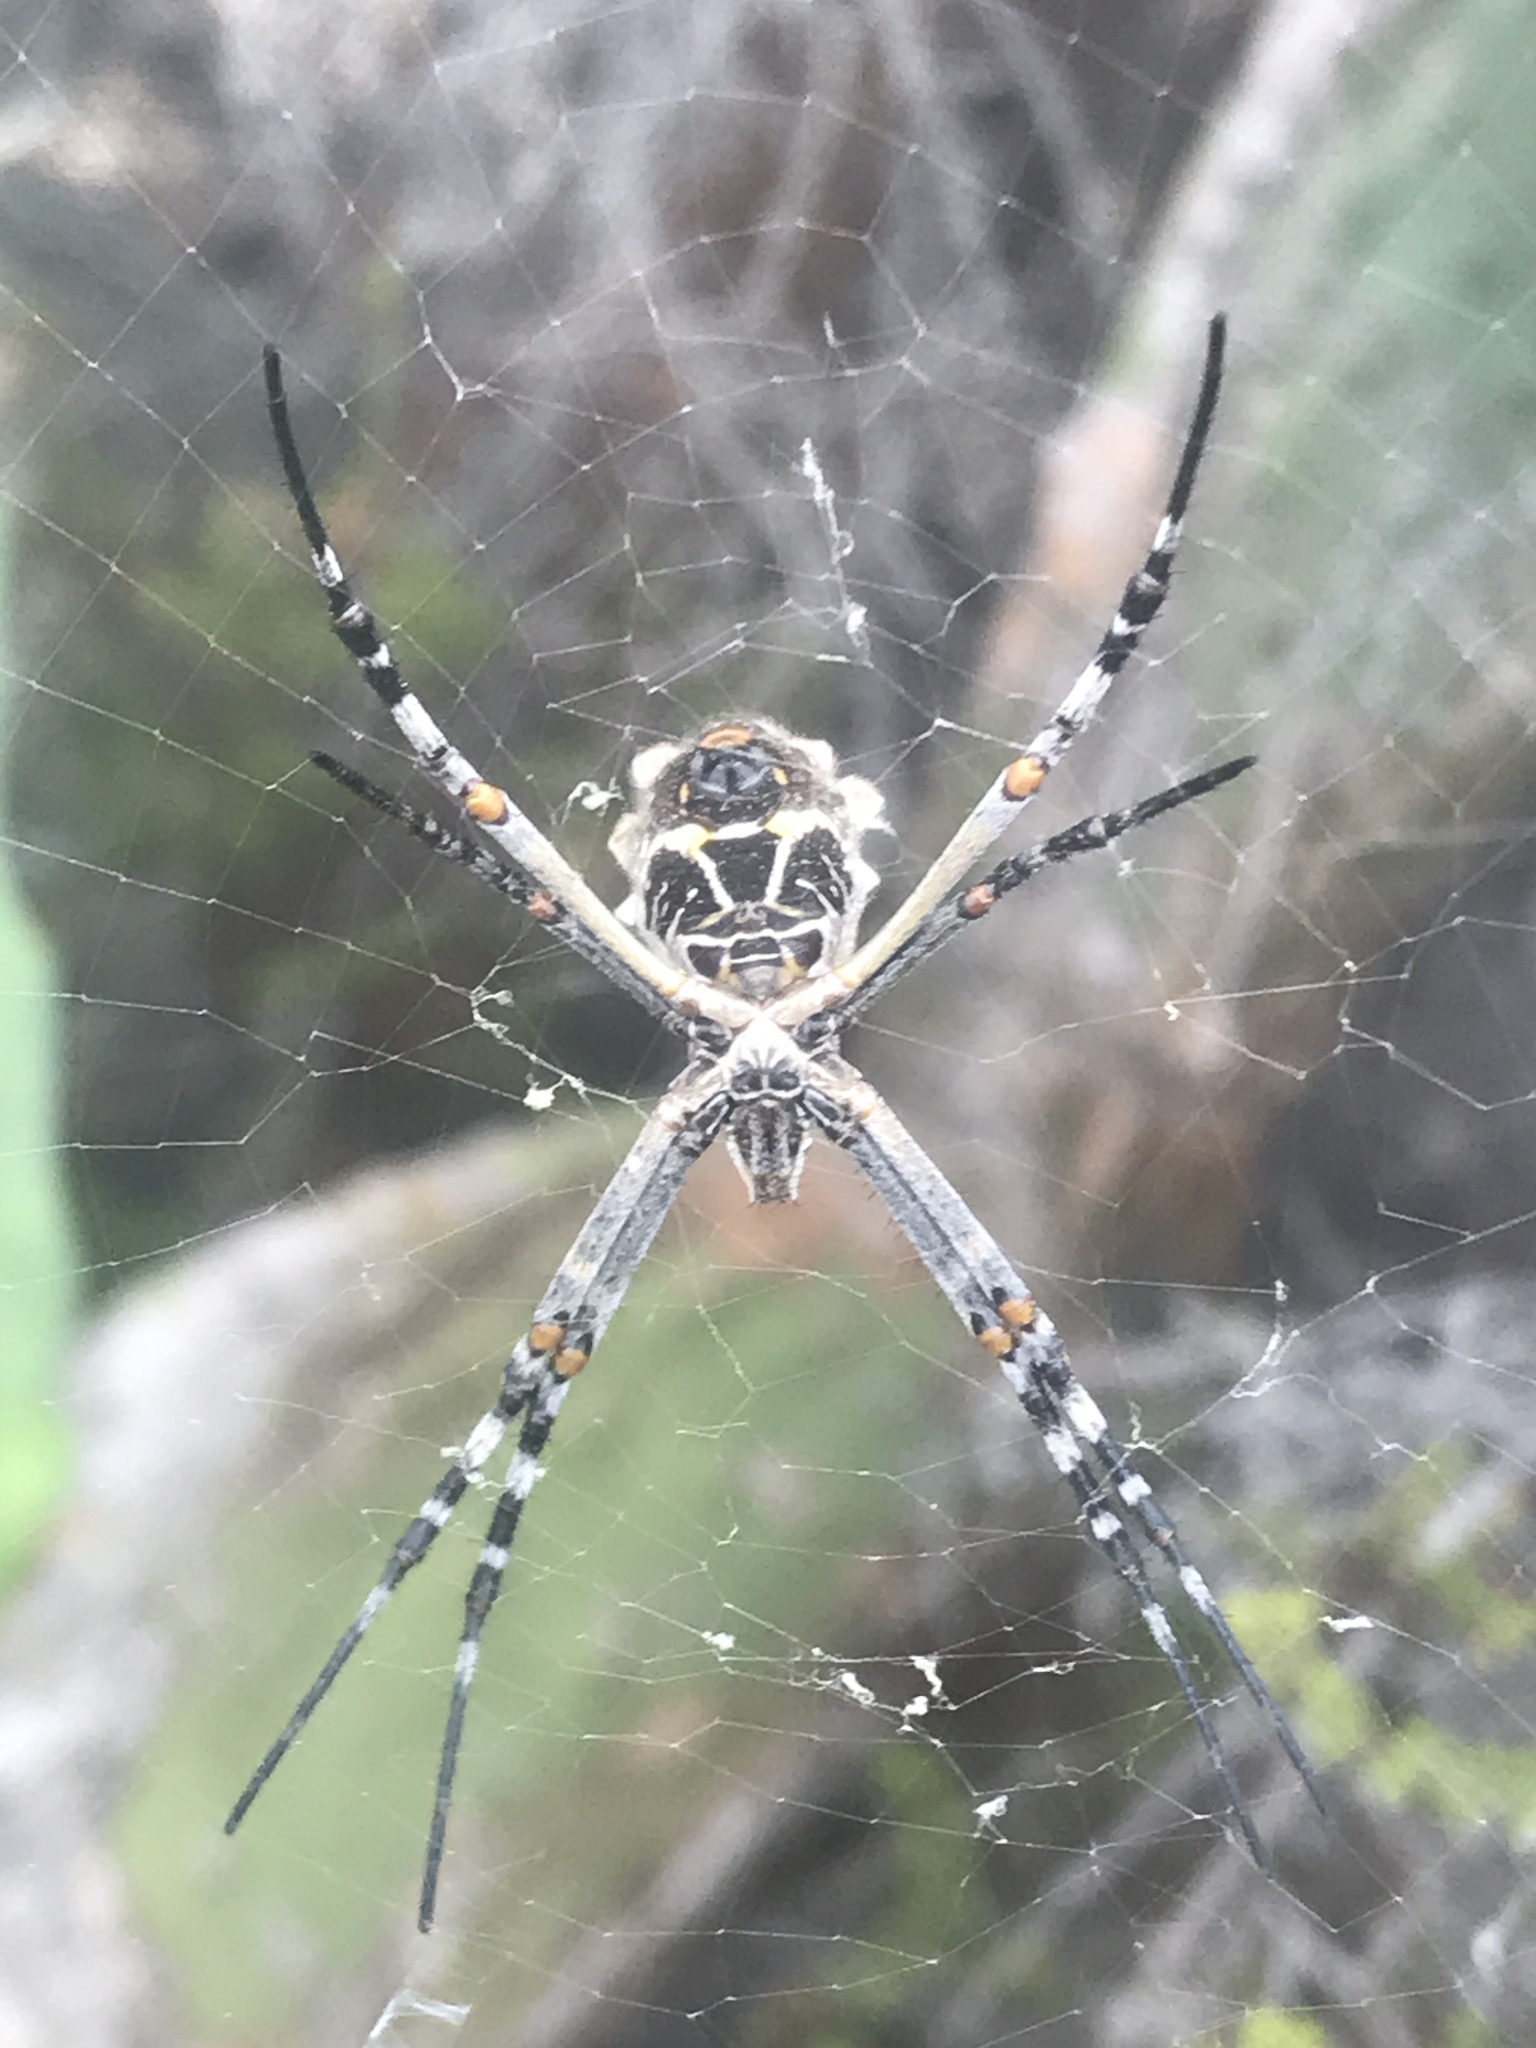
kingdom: Animalia
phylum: Arthropoda
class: Arachnida
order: Araneae
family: Araneidae
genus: Argiope
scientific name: Argiope argentata
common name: Orb weavers
